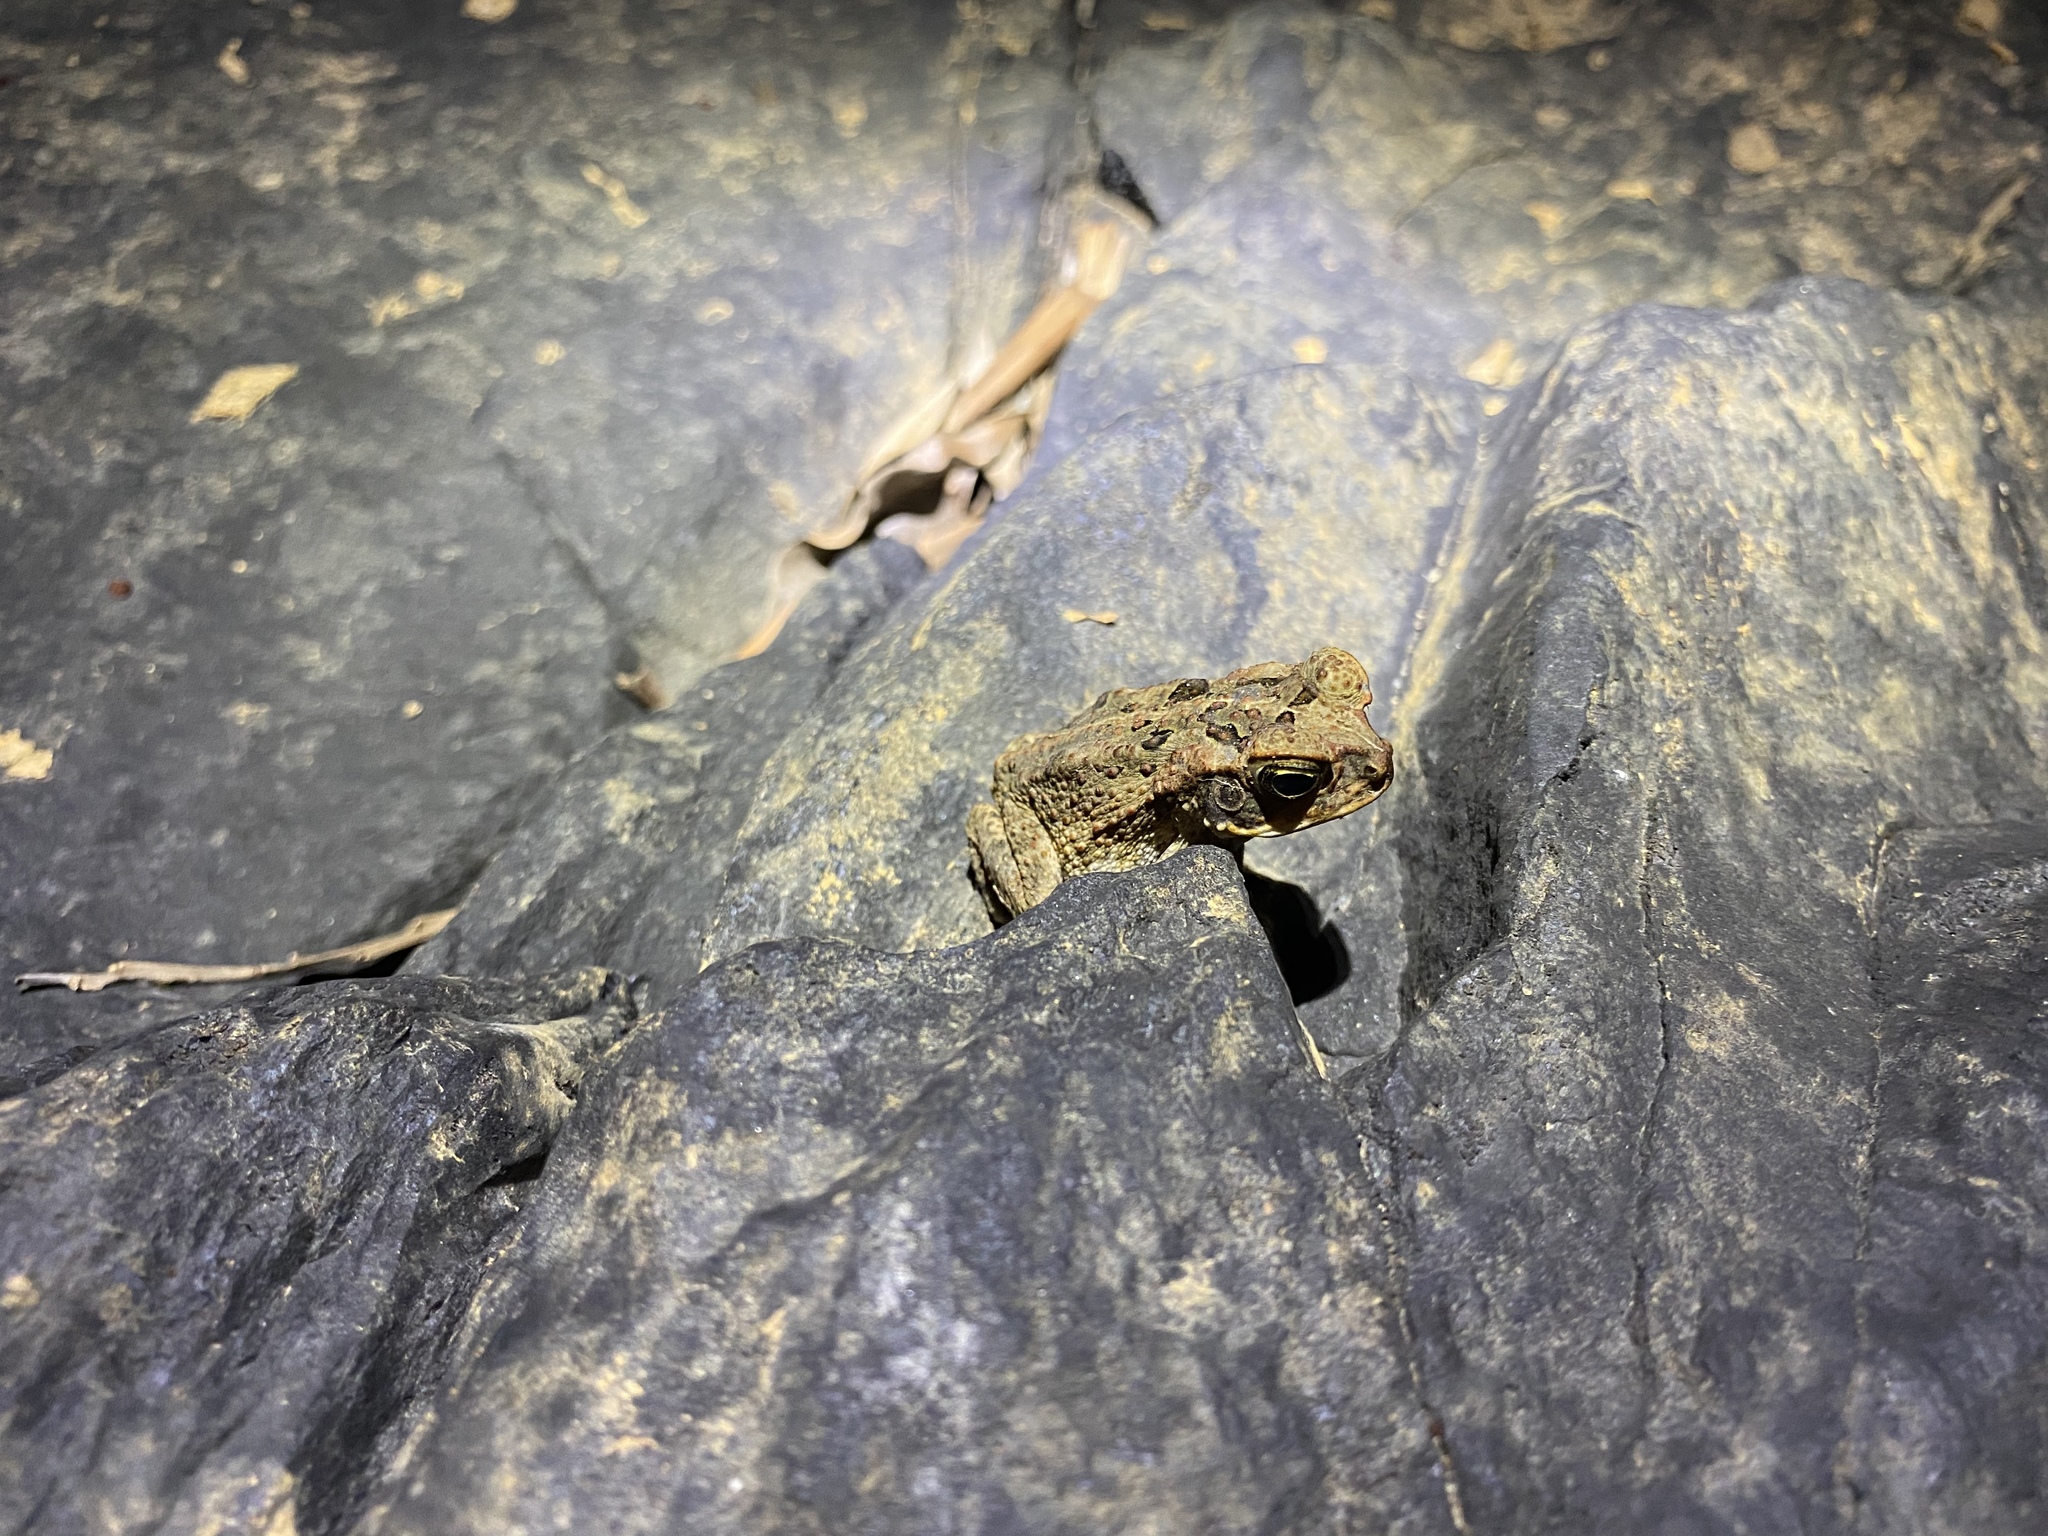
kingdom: Animalia
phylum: Chordata
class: Amphibia
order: Anura
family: Bufonidae
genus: Rhinella
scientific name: Rhinella marina
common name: Cane toad
